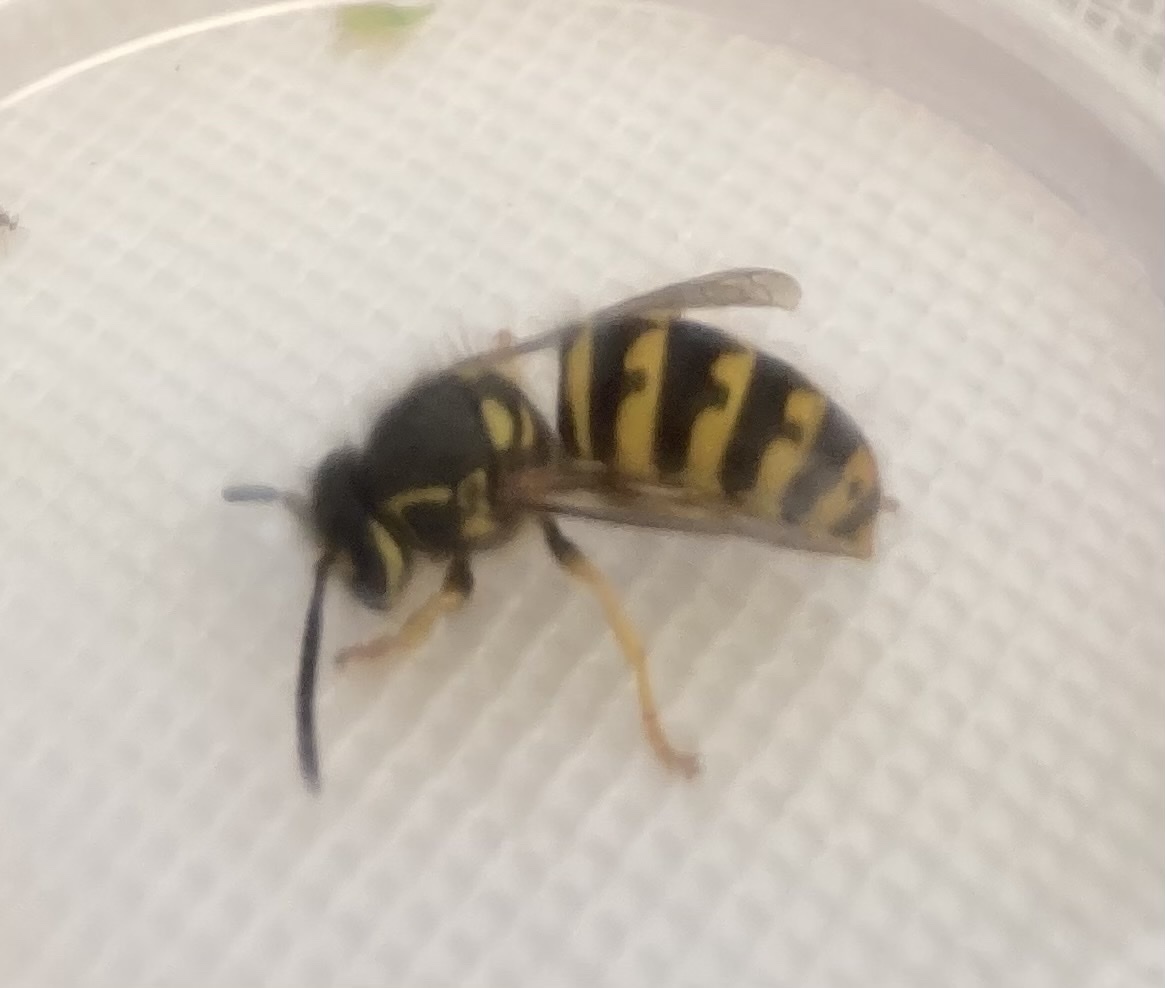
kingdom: Animalia
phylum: Arthropoda
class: Insecta
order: Hymenoptera
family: Vespidae
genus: Dolichovespula
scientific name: Dolichovespula arenaria
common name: Aerial yellowjacket
